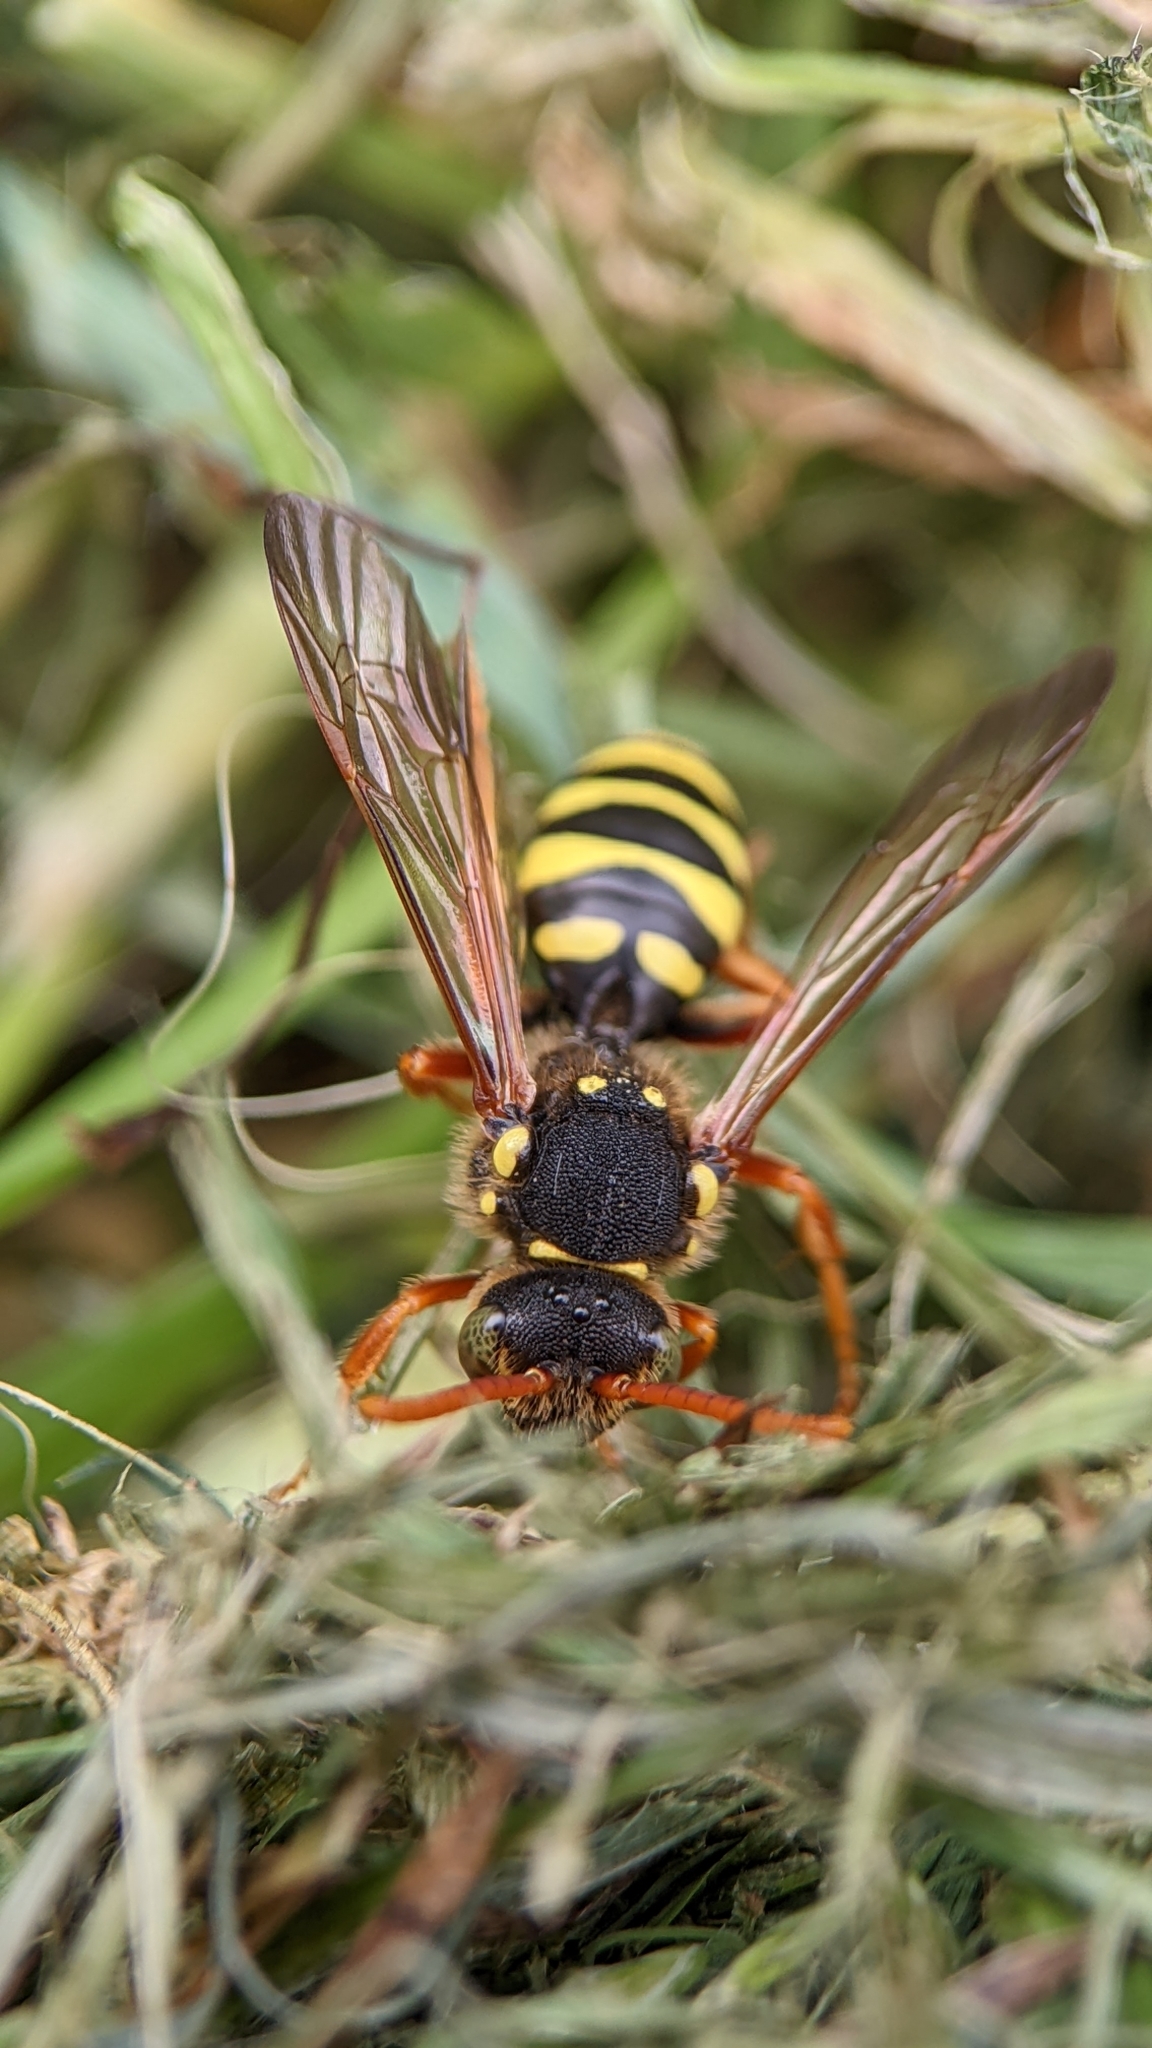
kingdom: Animalia
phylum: Arthropoda
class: Insecta
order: Hymenoptera
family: Apidae
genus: Nomada
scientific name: Nomada goodeniana
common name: Gooden's nomad bee
